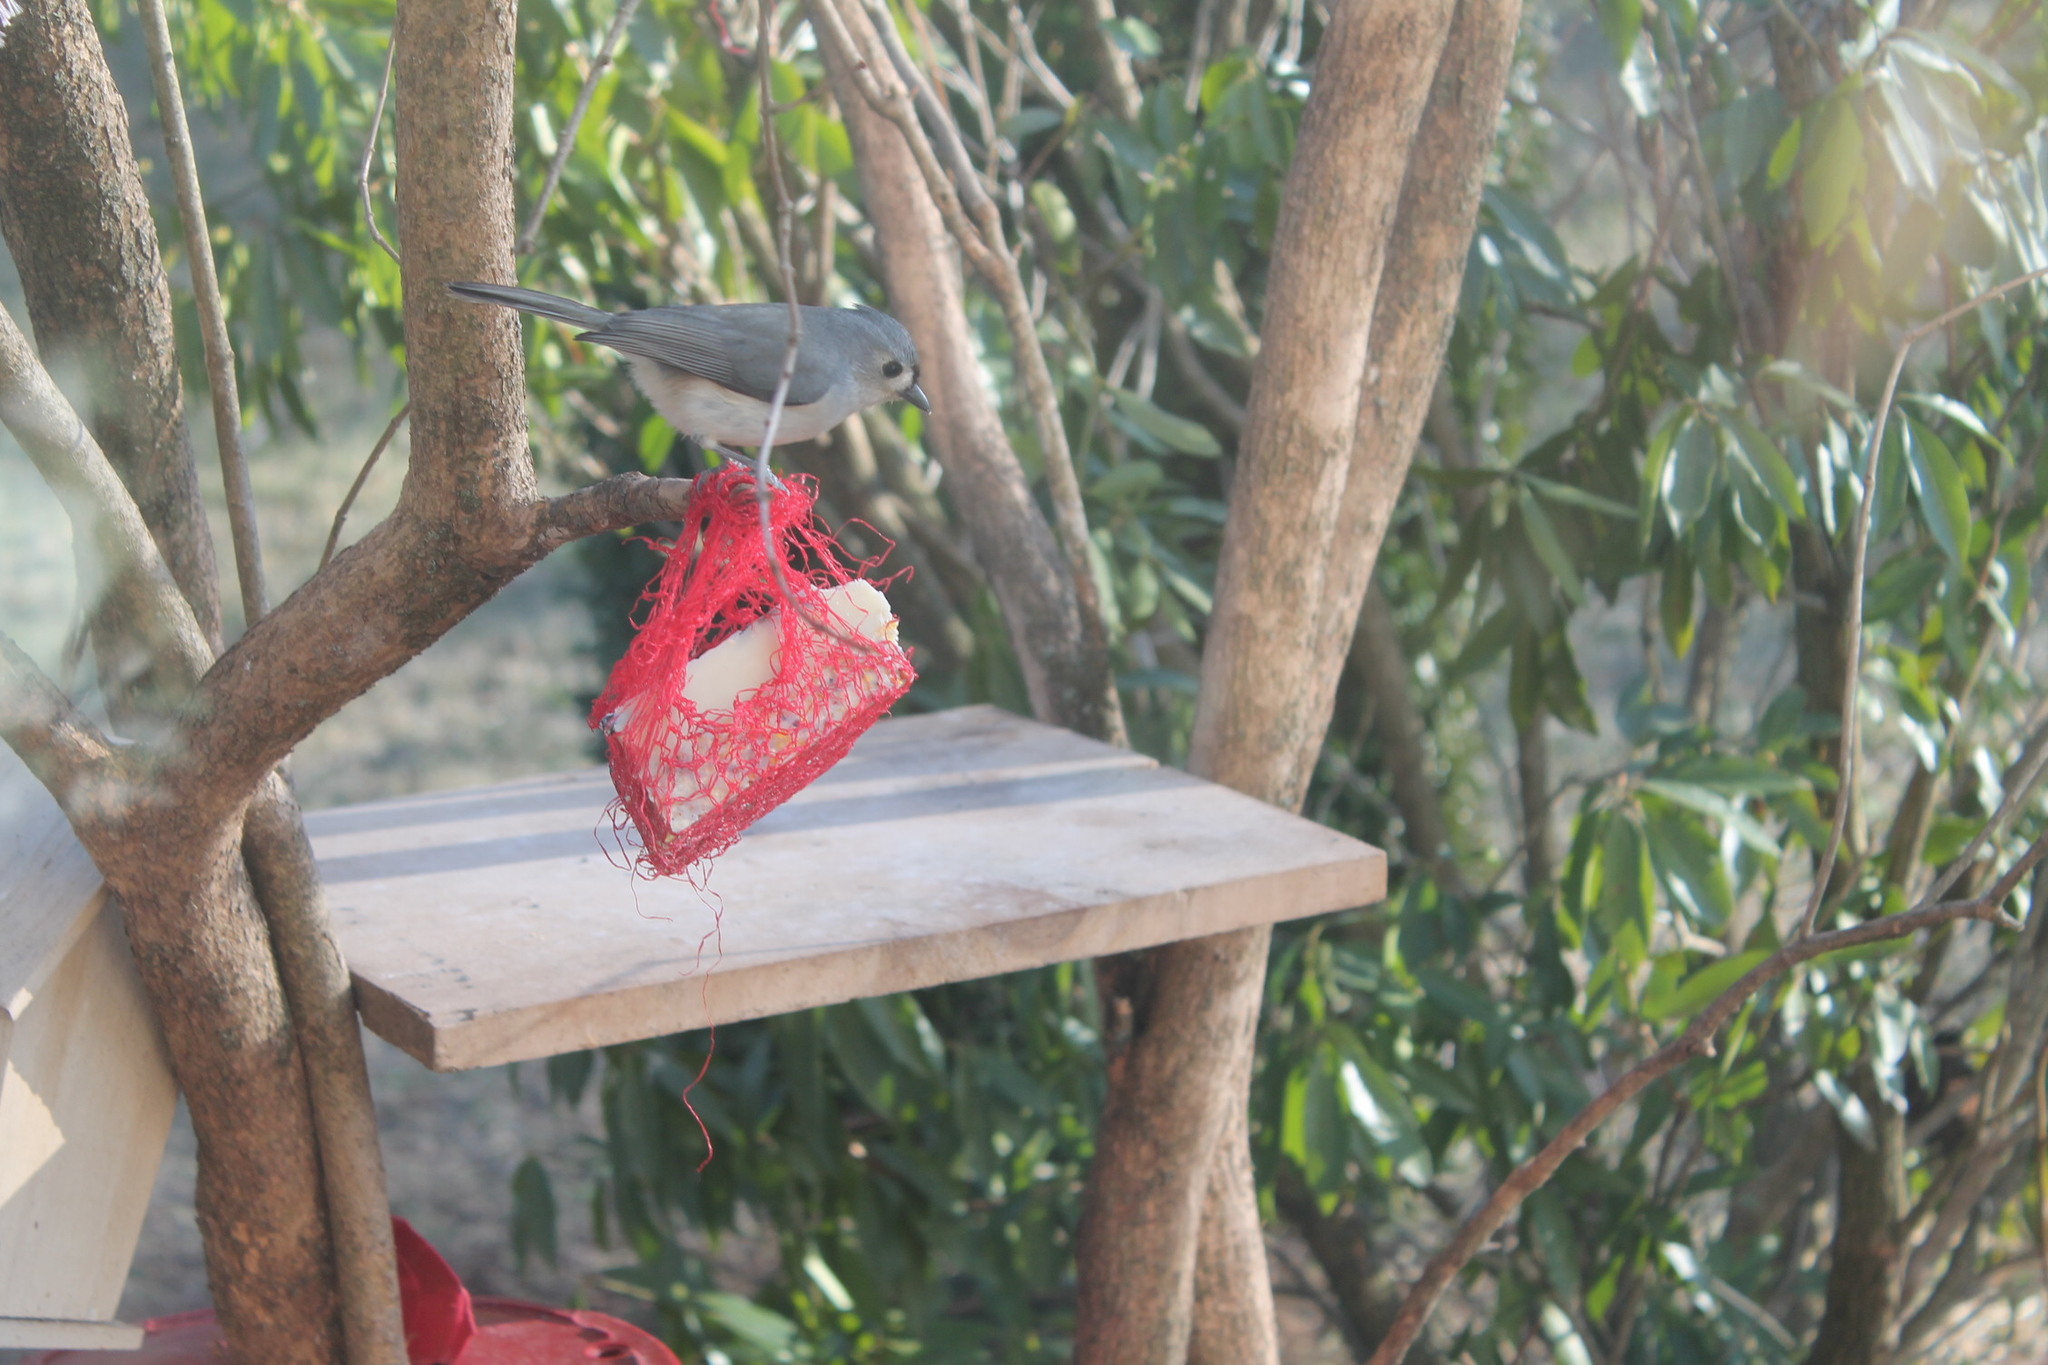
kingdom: Animalia
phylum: Chordata
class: Aves
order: Passeriformes
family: Paridae
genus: Baeolophus
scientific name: Baeolophus bicolor
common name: Tufted titmouse
